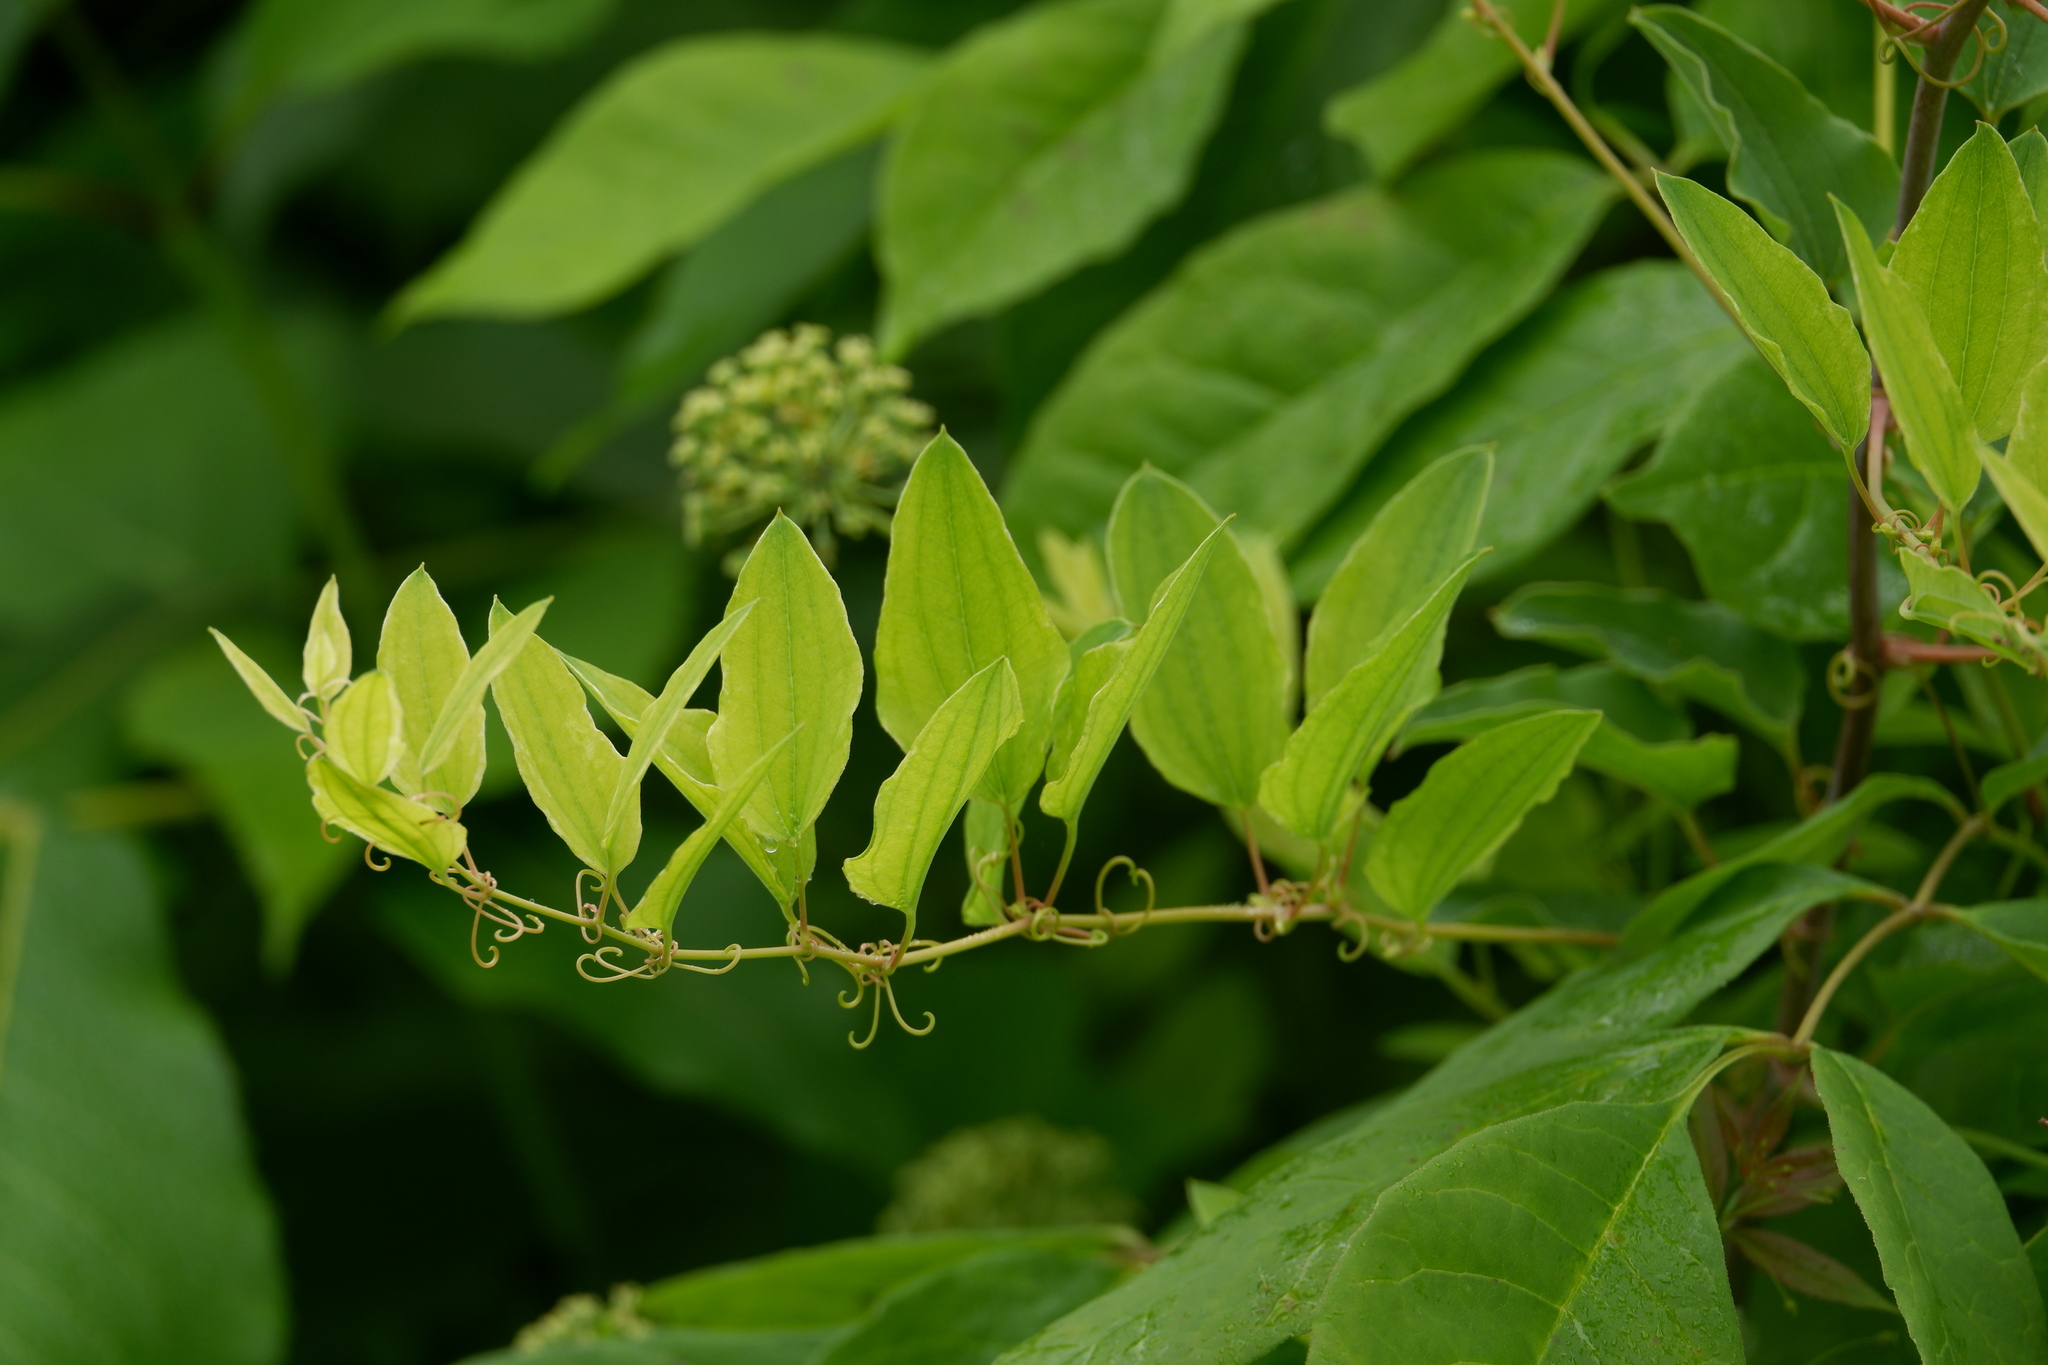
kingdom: Plantae
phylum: Tracheophyta
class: Liliopsida
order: Liliales
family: Smilacaceae
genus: Smilax
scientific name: Smilax herbacea
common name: Jacob's-ladder
